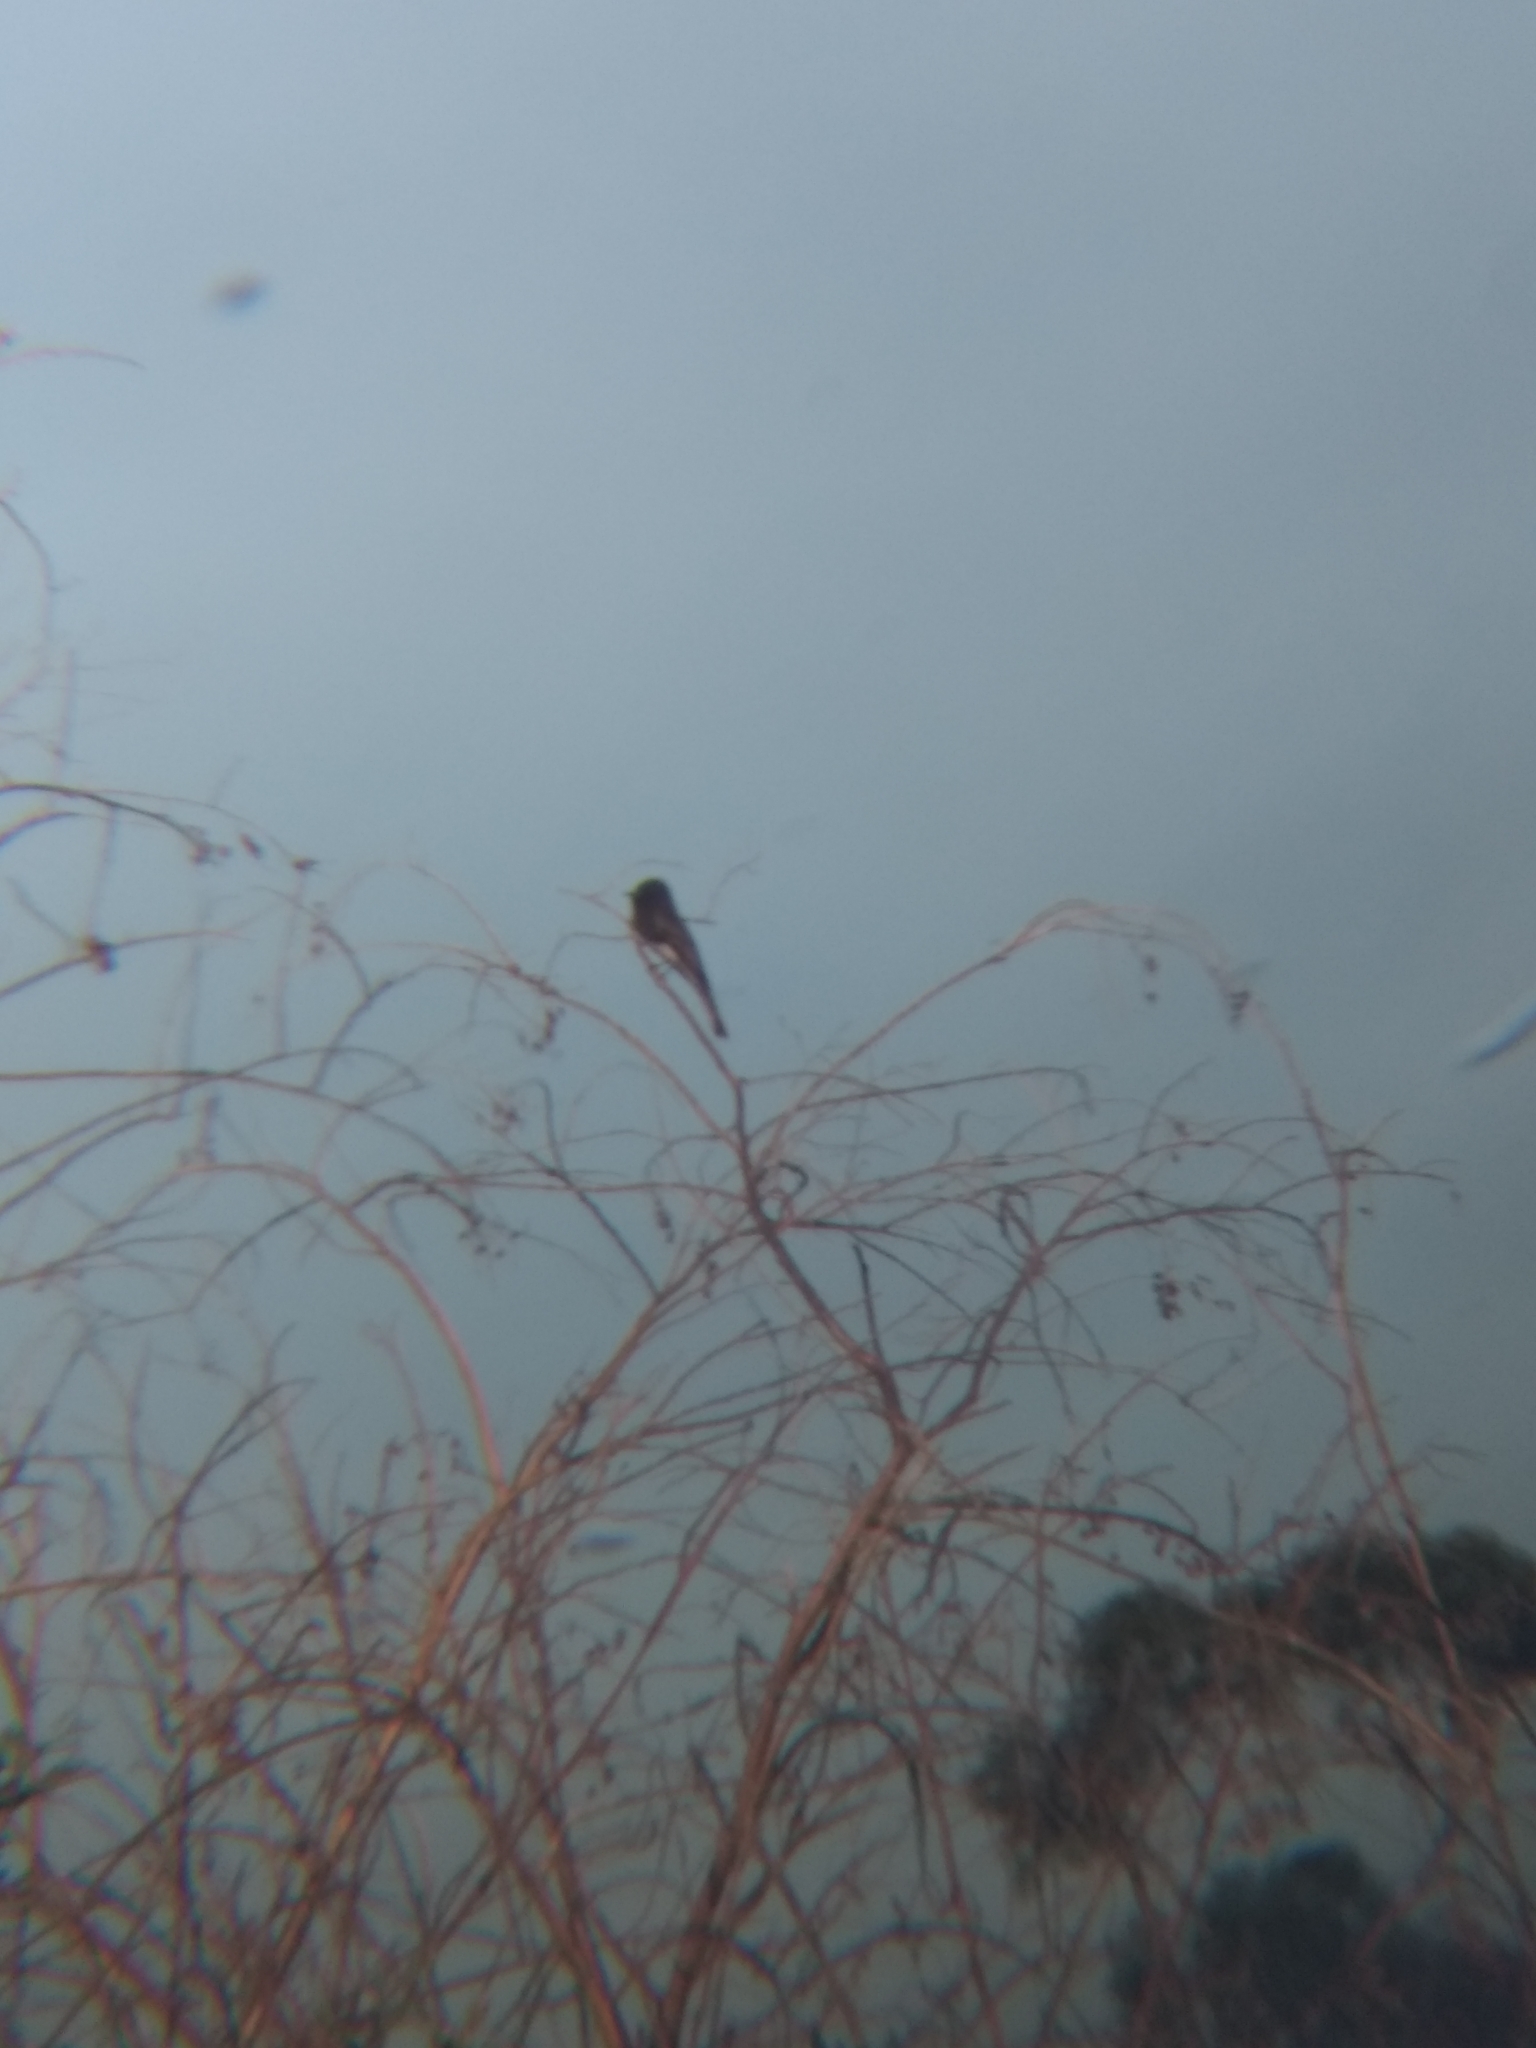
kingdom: Animalia
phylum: Chordata
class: Aves
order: Passeriformes
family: Tyrannidae
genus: Sayornis
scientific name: Sayornis nigricans
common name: Black phoebe
